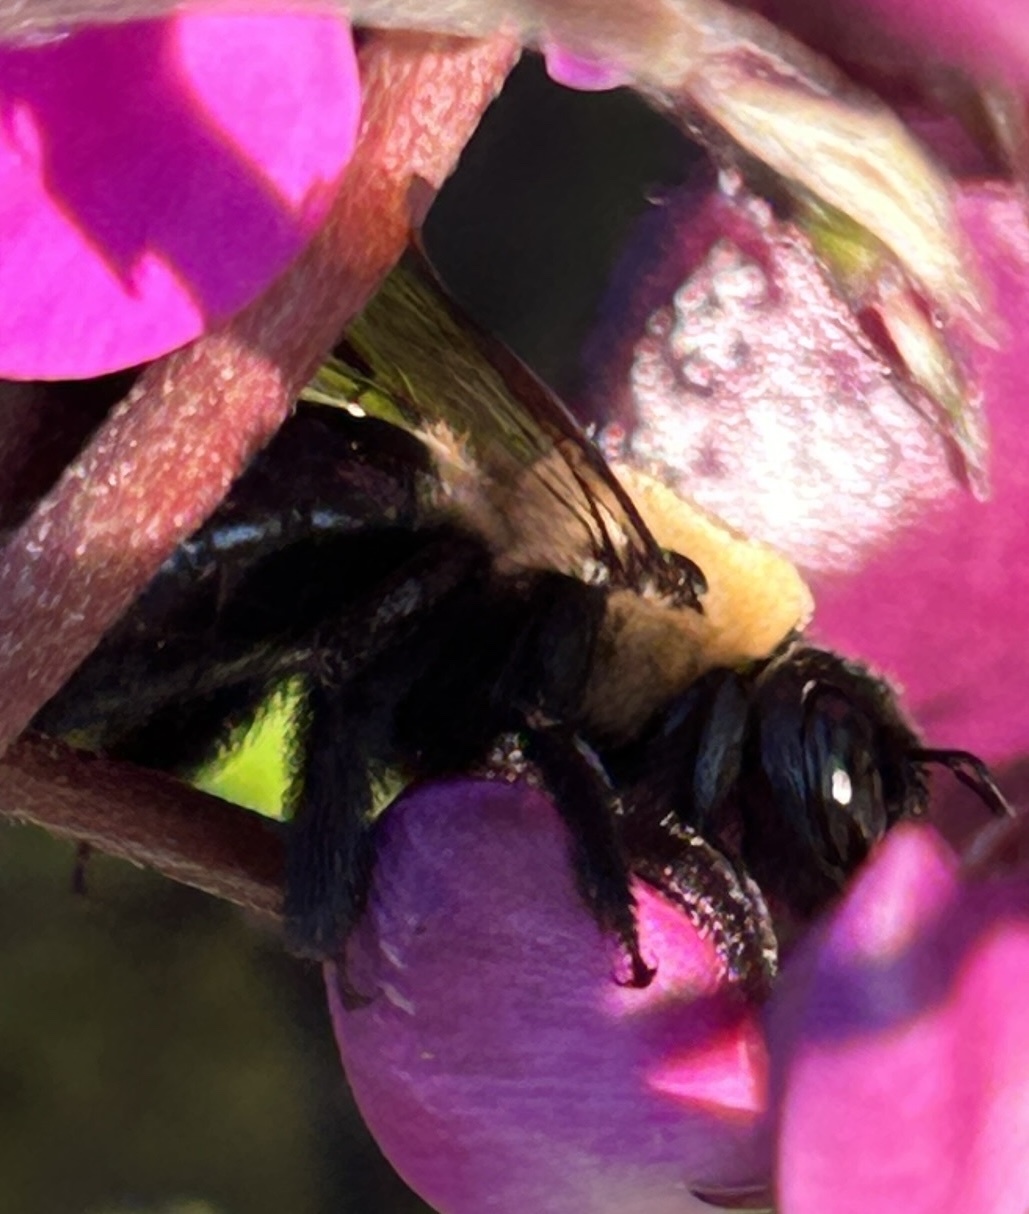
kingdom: Animalia
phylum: Arthropoda
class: Insecta
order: Hymenoptera
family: Apidae
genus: Xylocopa
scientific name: Xylocopa virginica
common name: Carpenter bee
